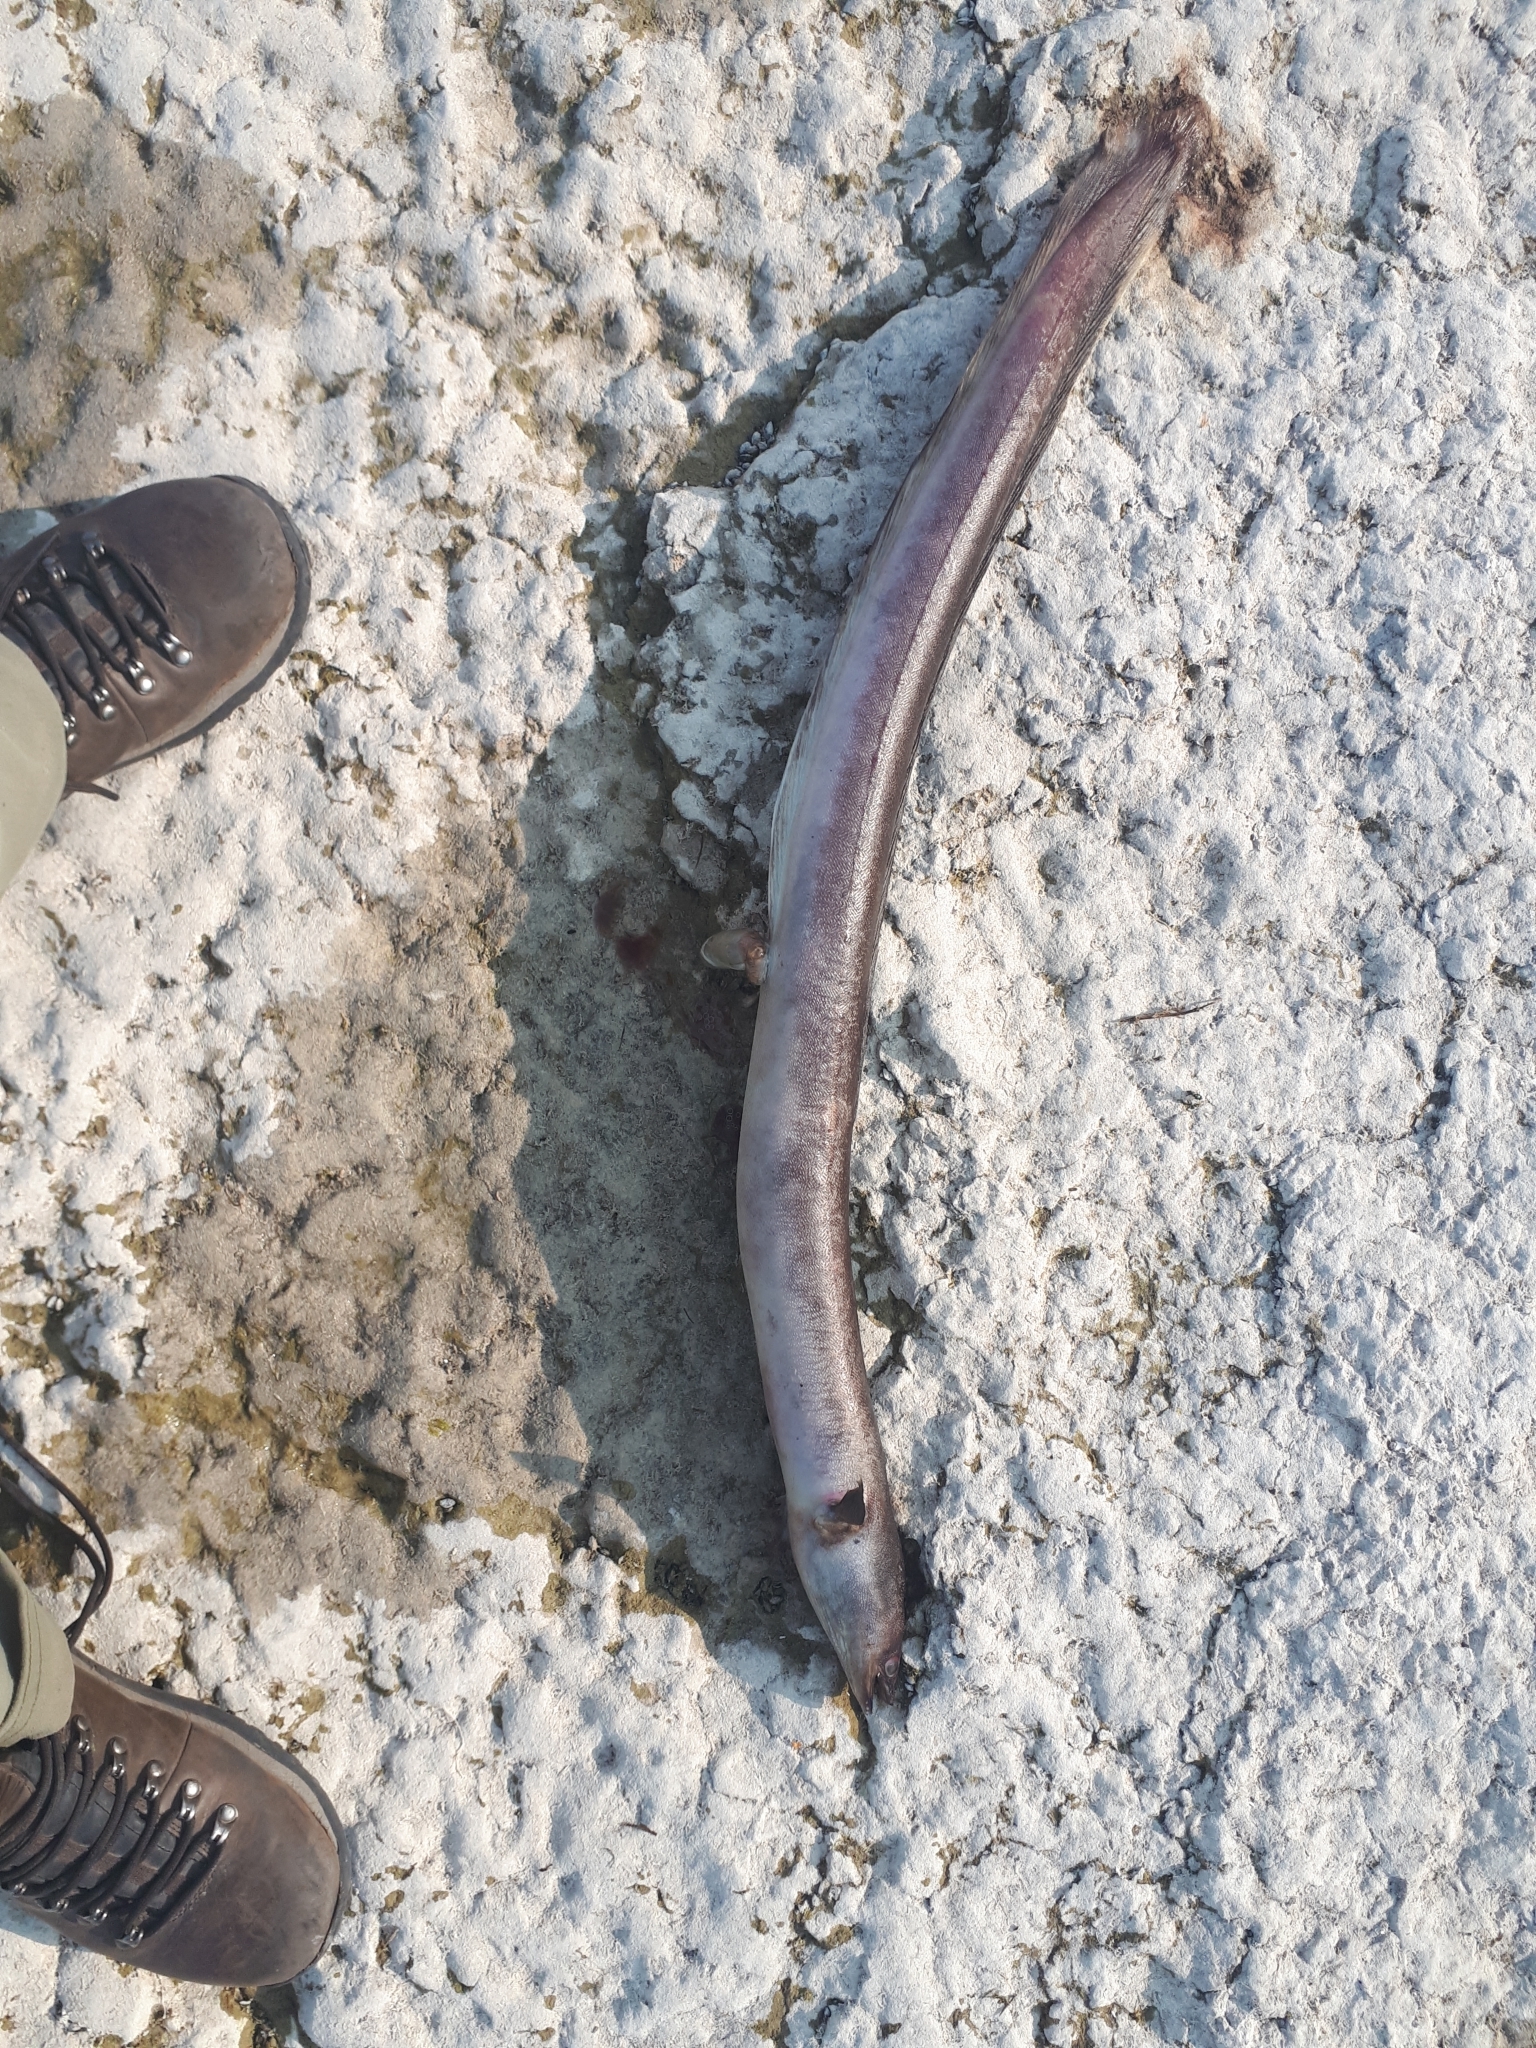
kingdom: Animalia
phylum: Chordata
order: Anguilliformes
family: Anguillidae
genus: Anguilla
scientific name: Anguilla rostrata
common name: American eel
